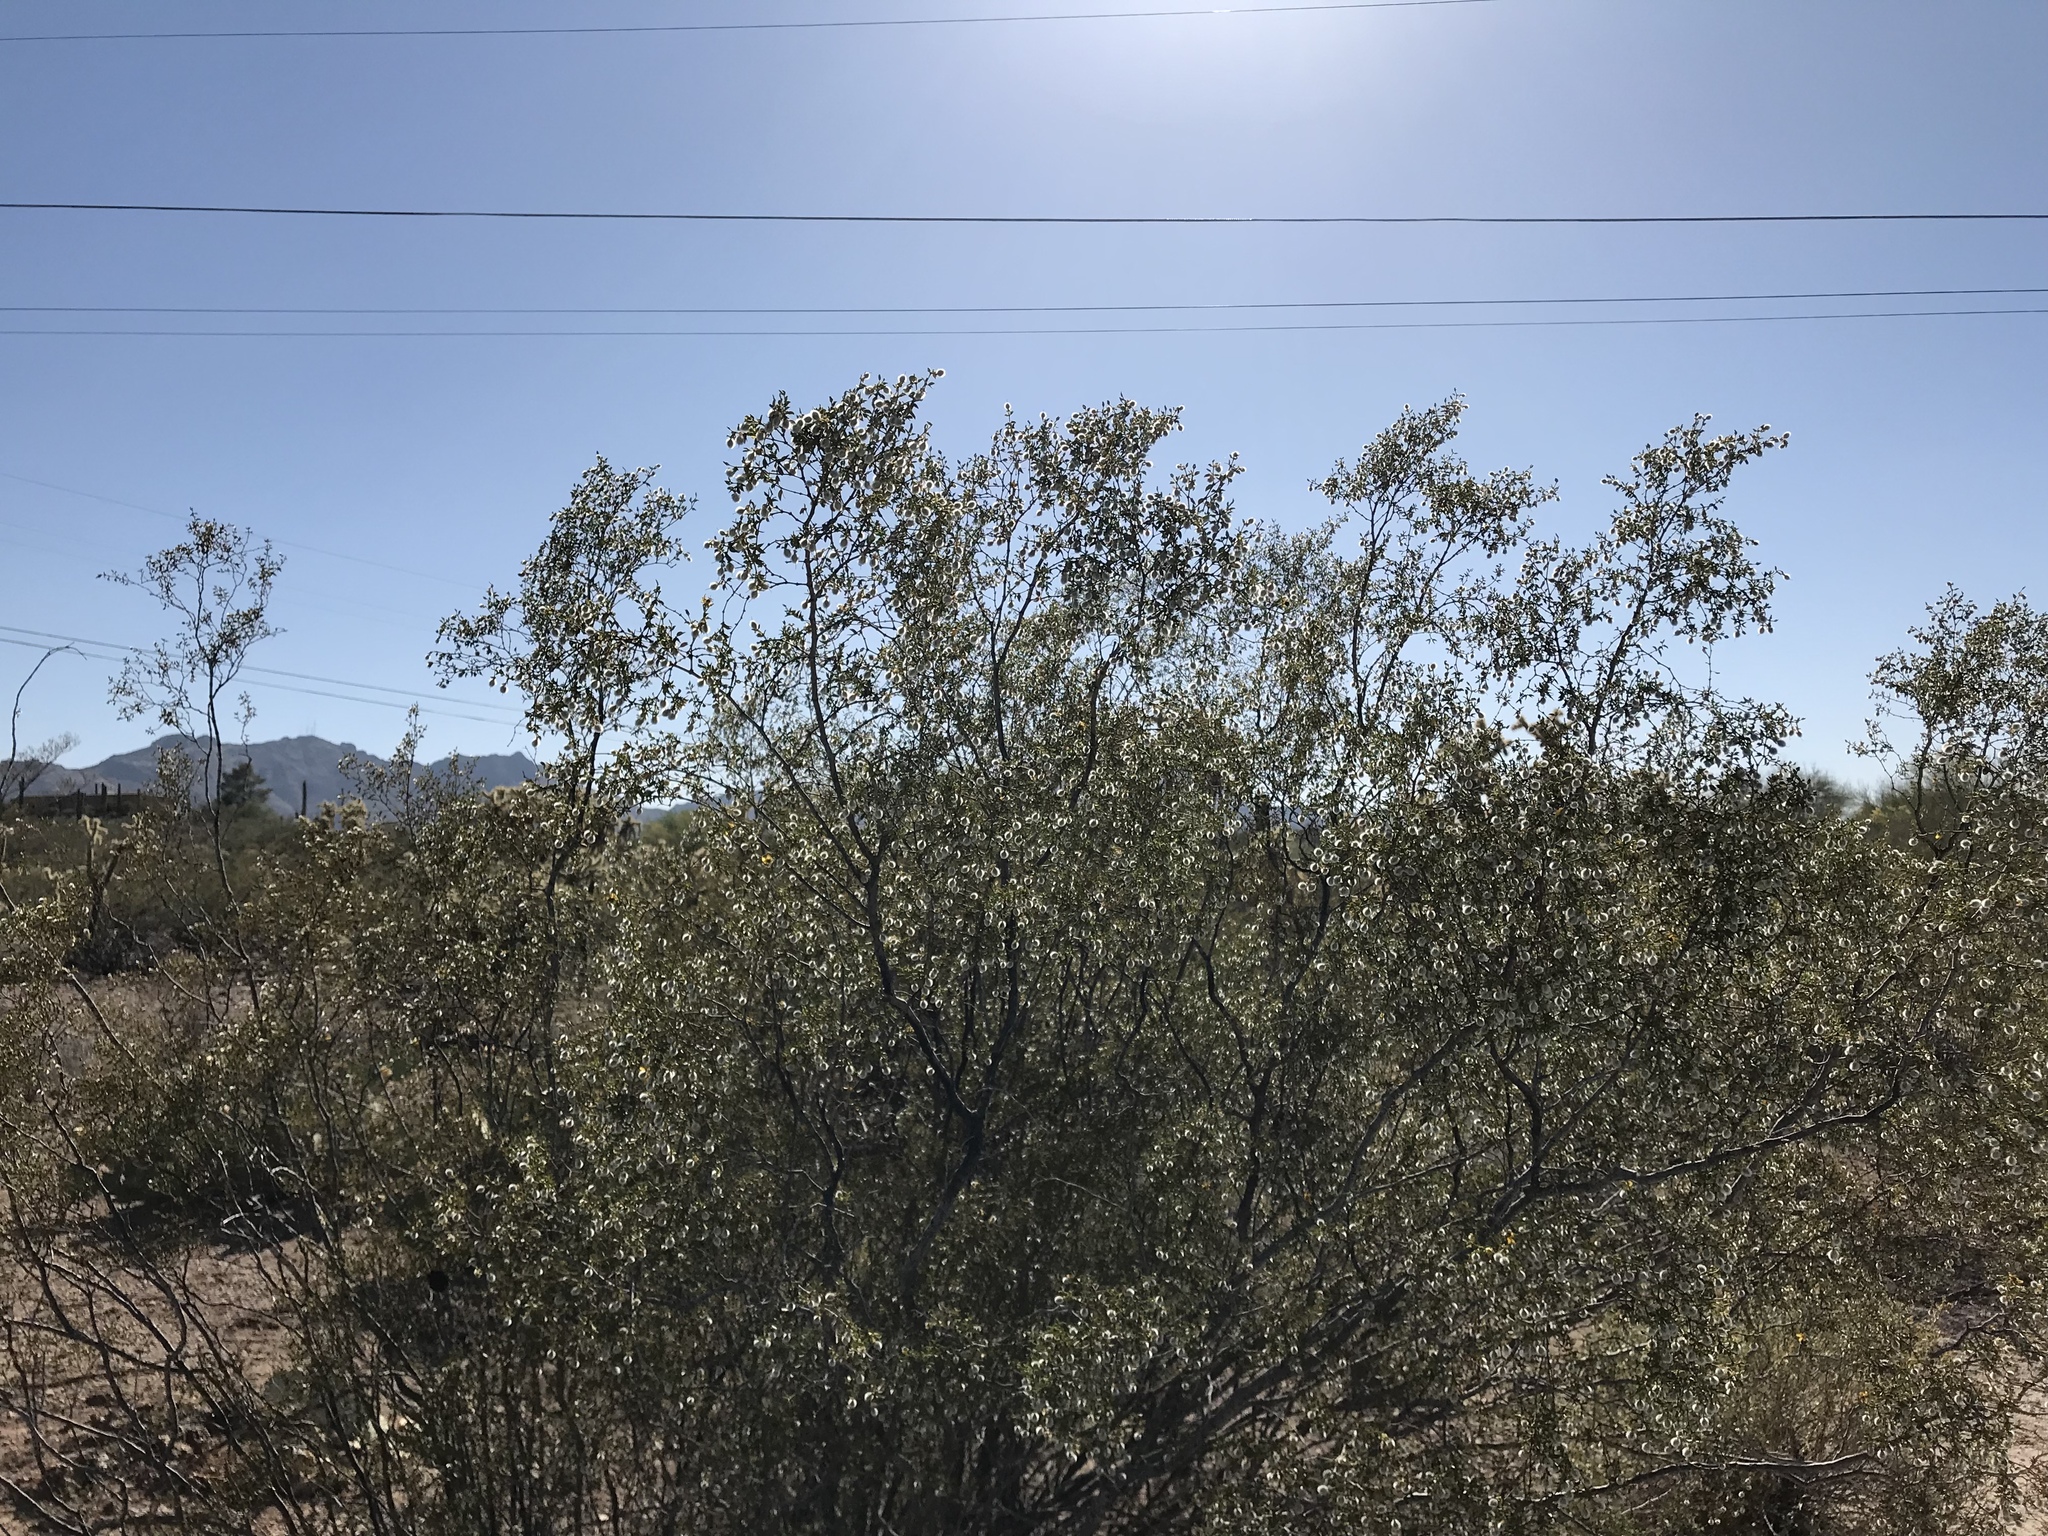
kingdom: Plantae
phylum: Tracheophyta
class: Magnoliopsida
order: Zygophyllales
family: Zygophyllaceae
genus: Larrea
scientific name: Larrea tridentata
